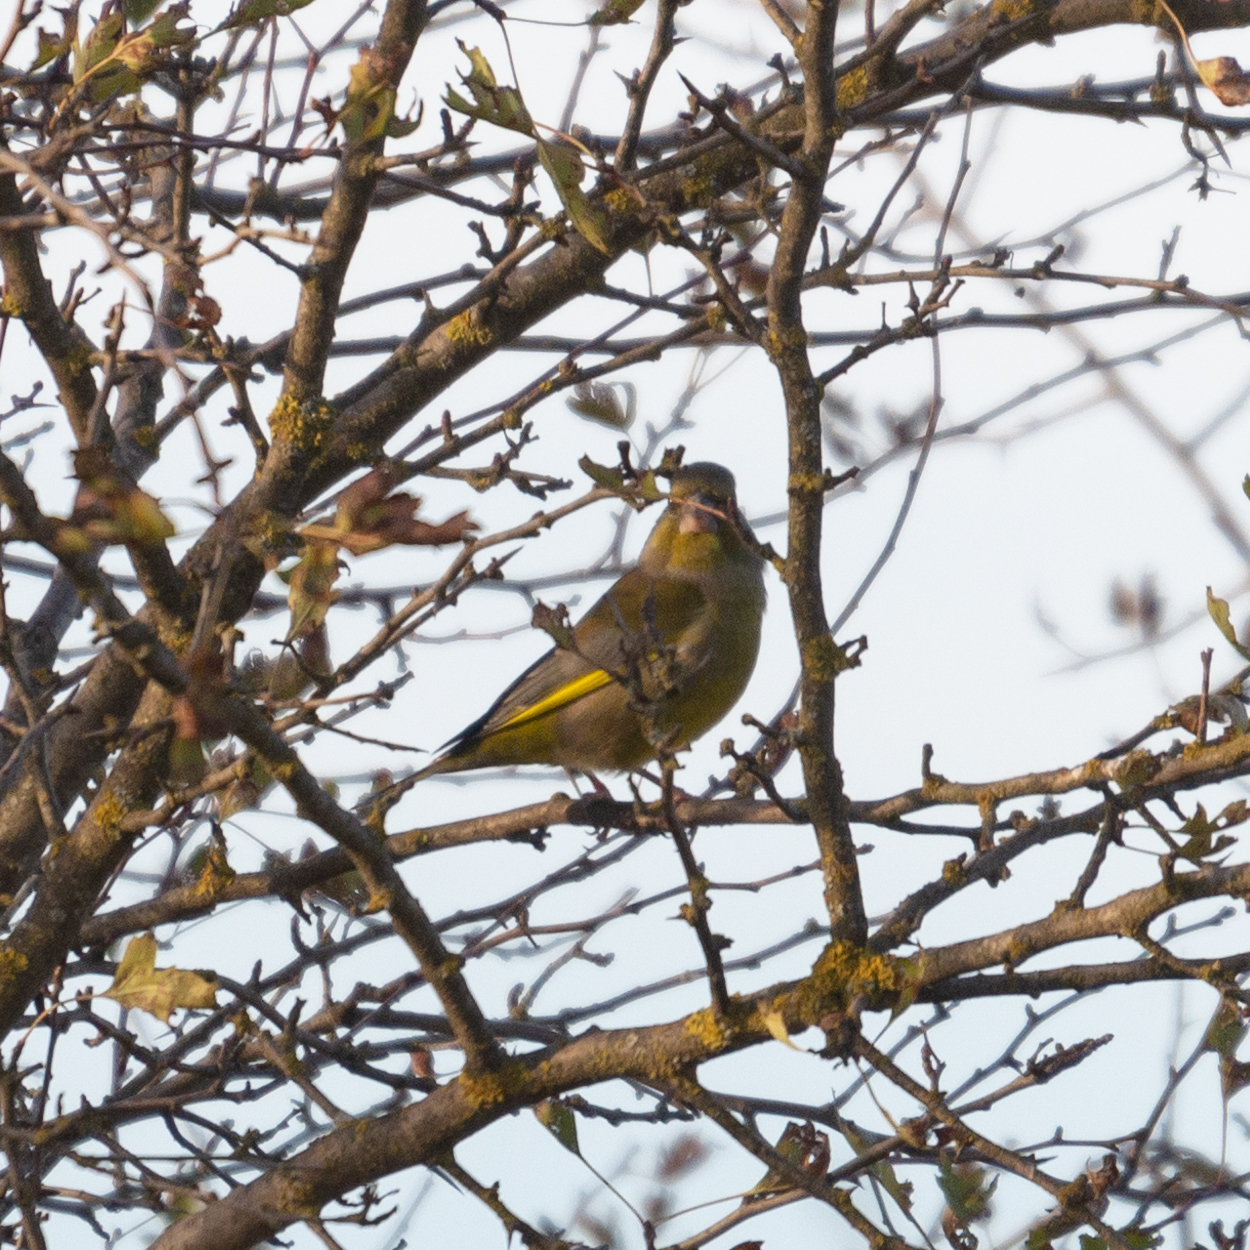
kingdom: Plantae
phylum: Tracheophyta
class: Liliopsida
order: Poales
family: Poaceae
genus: Chloris
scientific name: Chloris chloris
